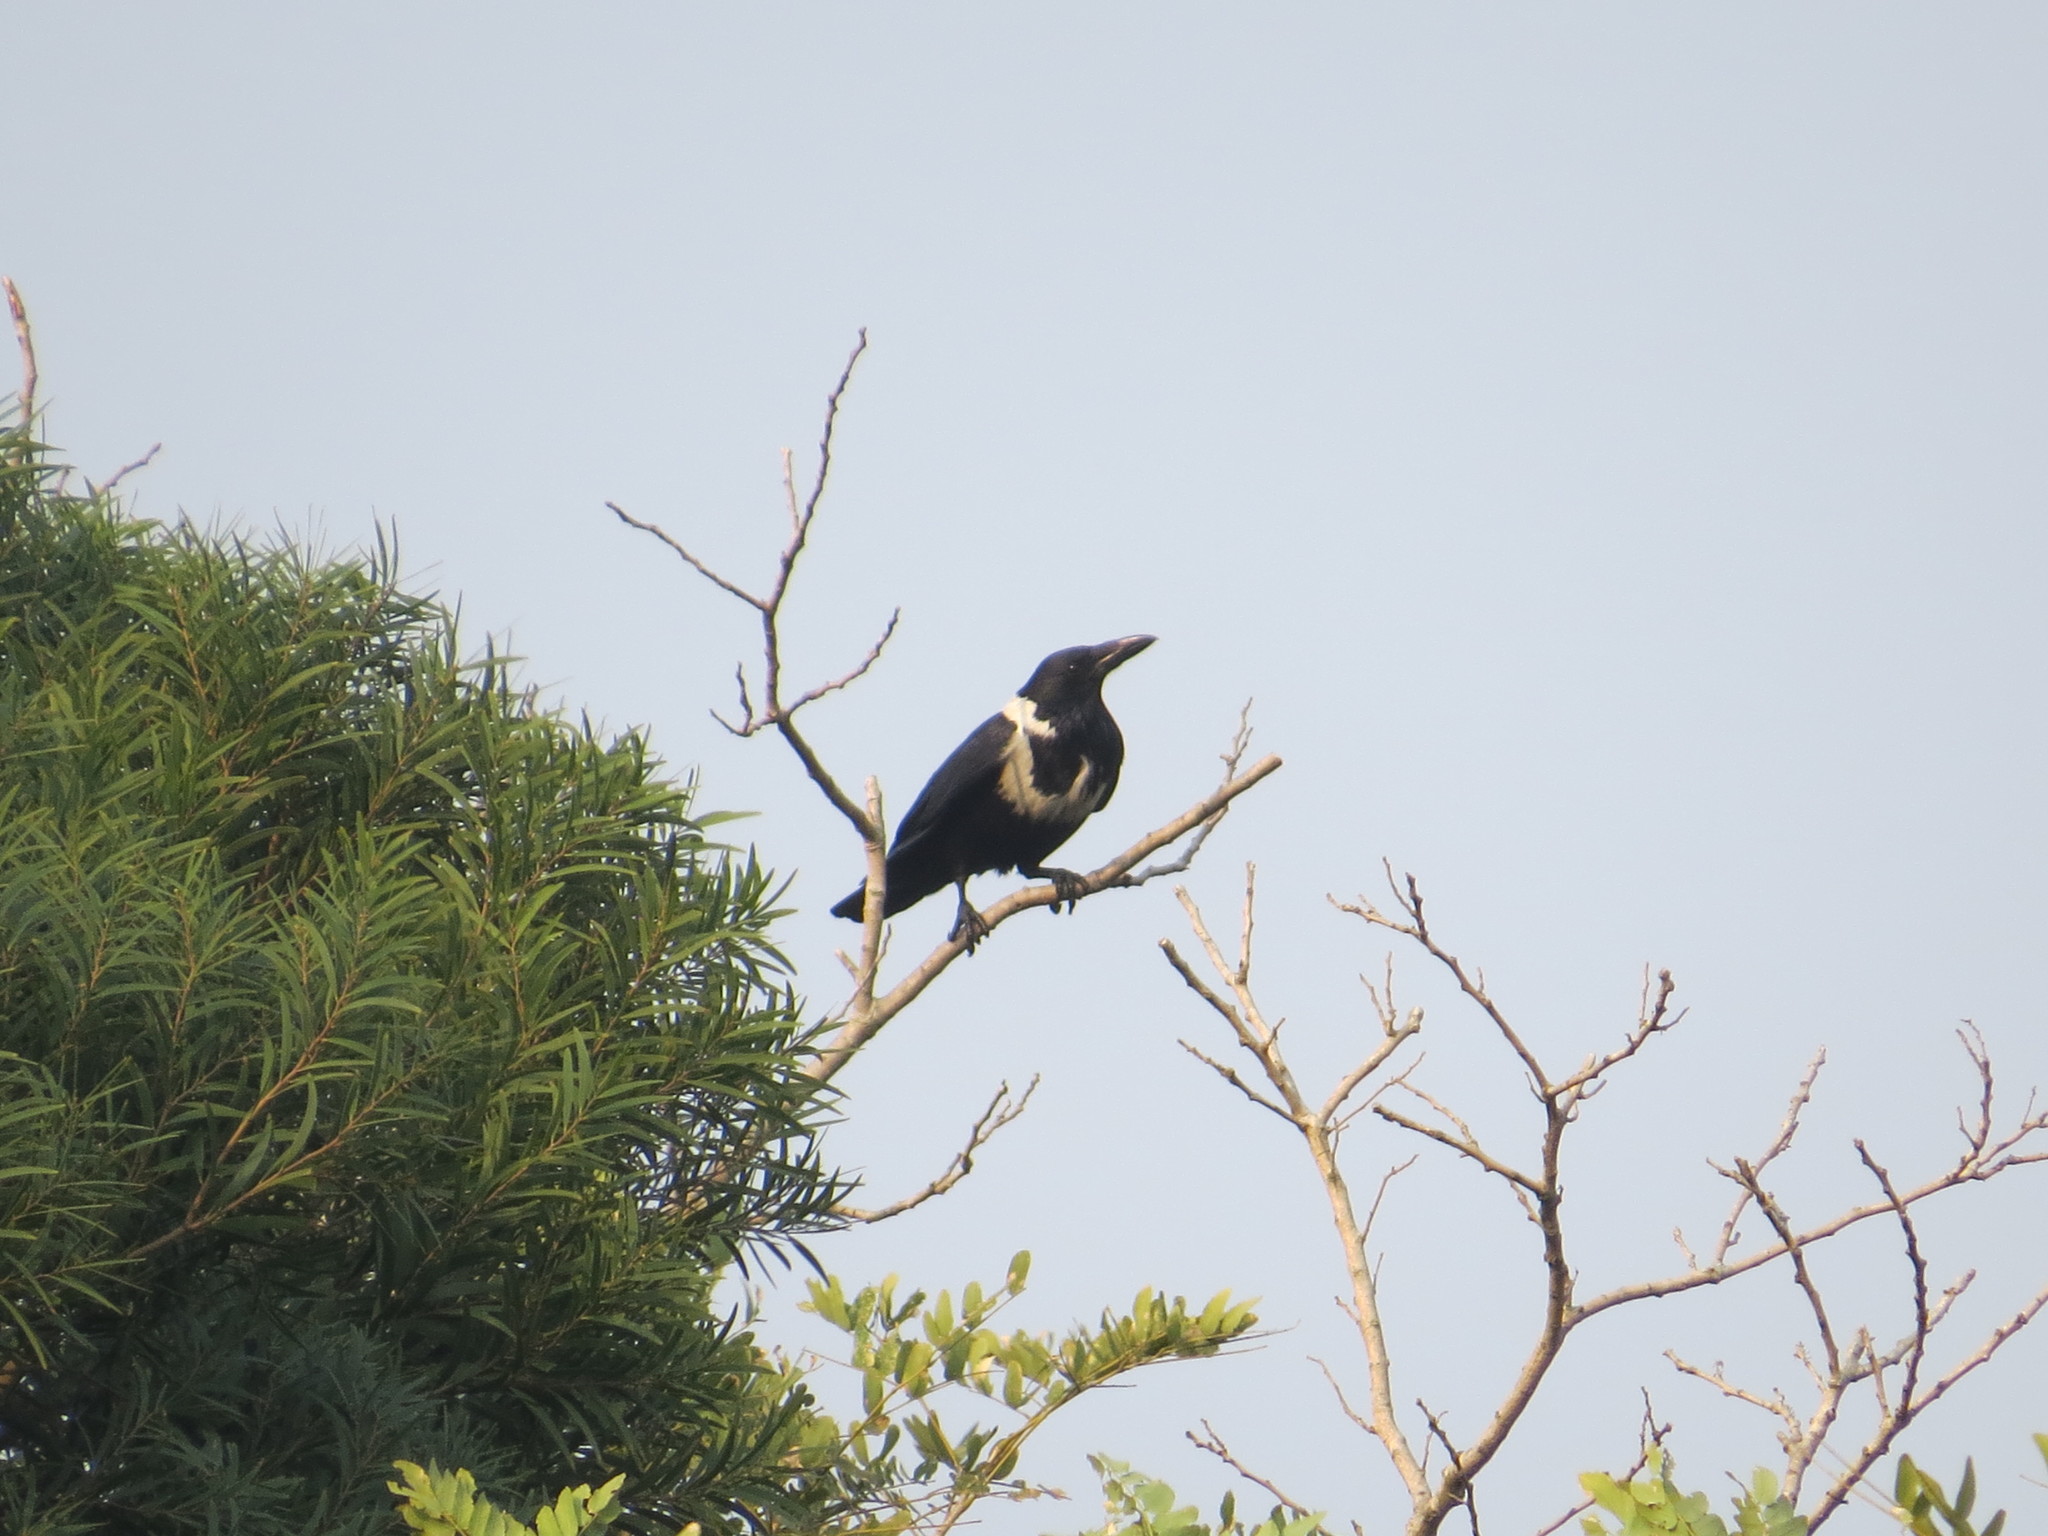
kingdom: Animalia
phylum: Chordata
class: Aves
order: Passeriformes
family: Corvidae
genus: Corvus
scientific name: Corvus pectoralis
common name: Collared crow
